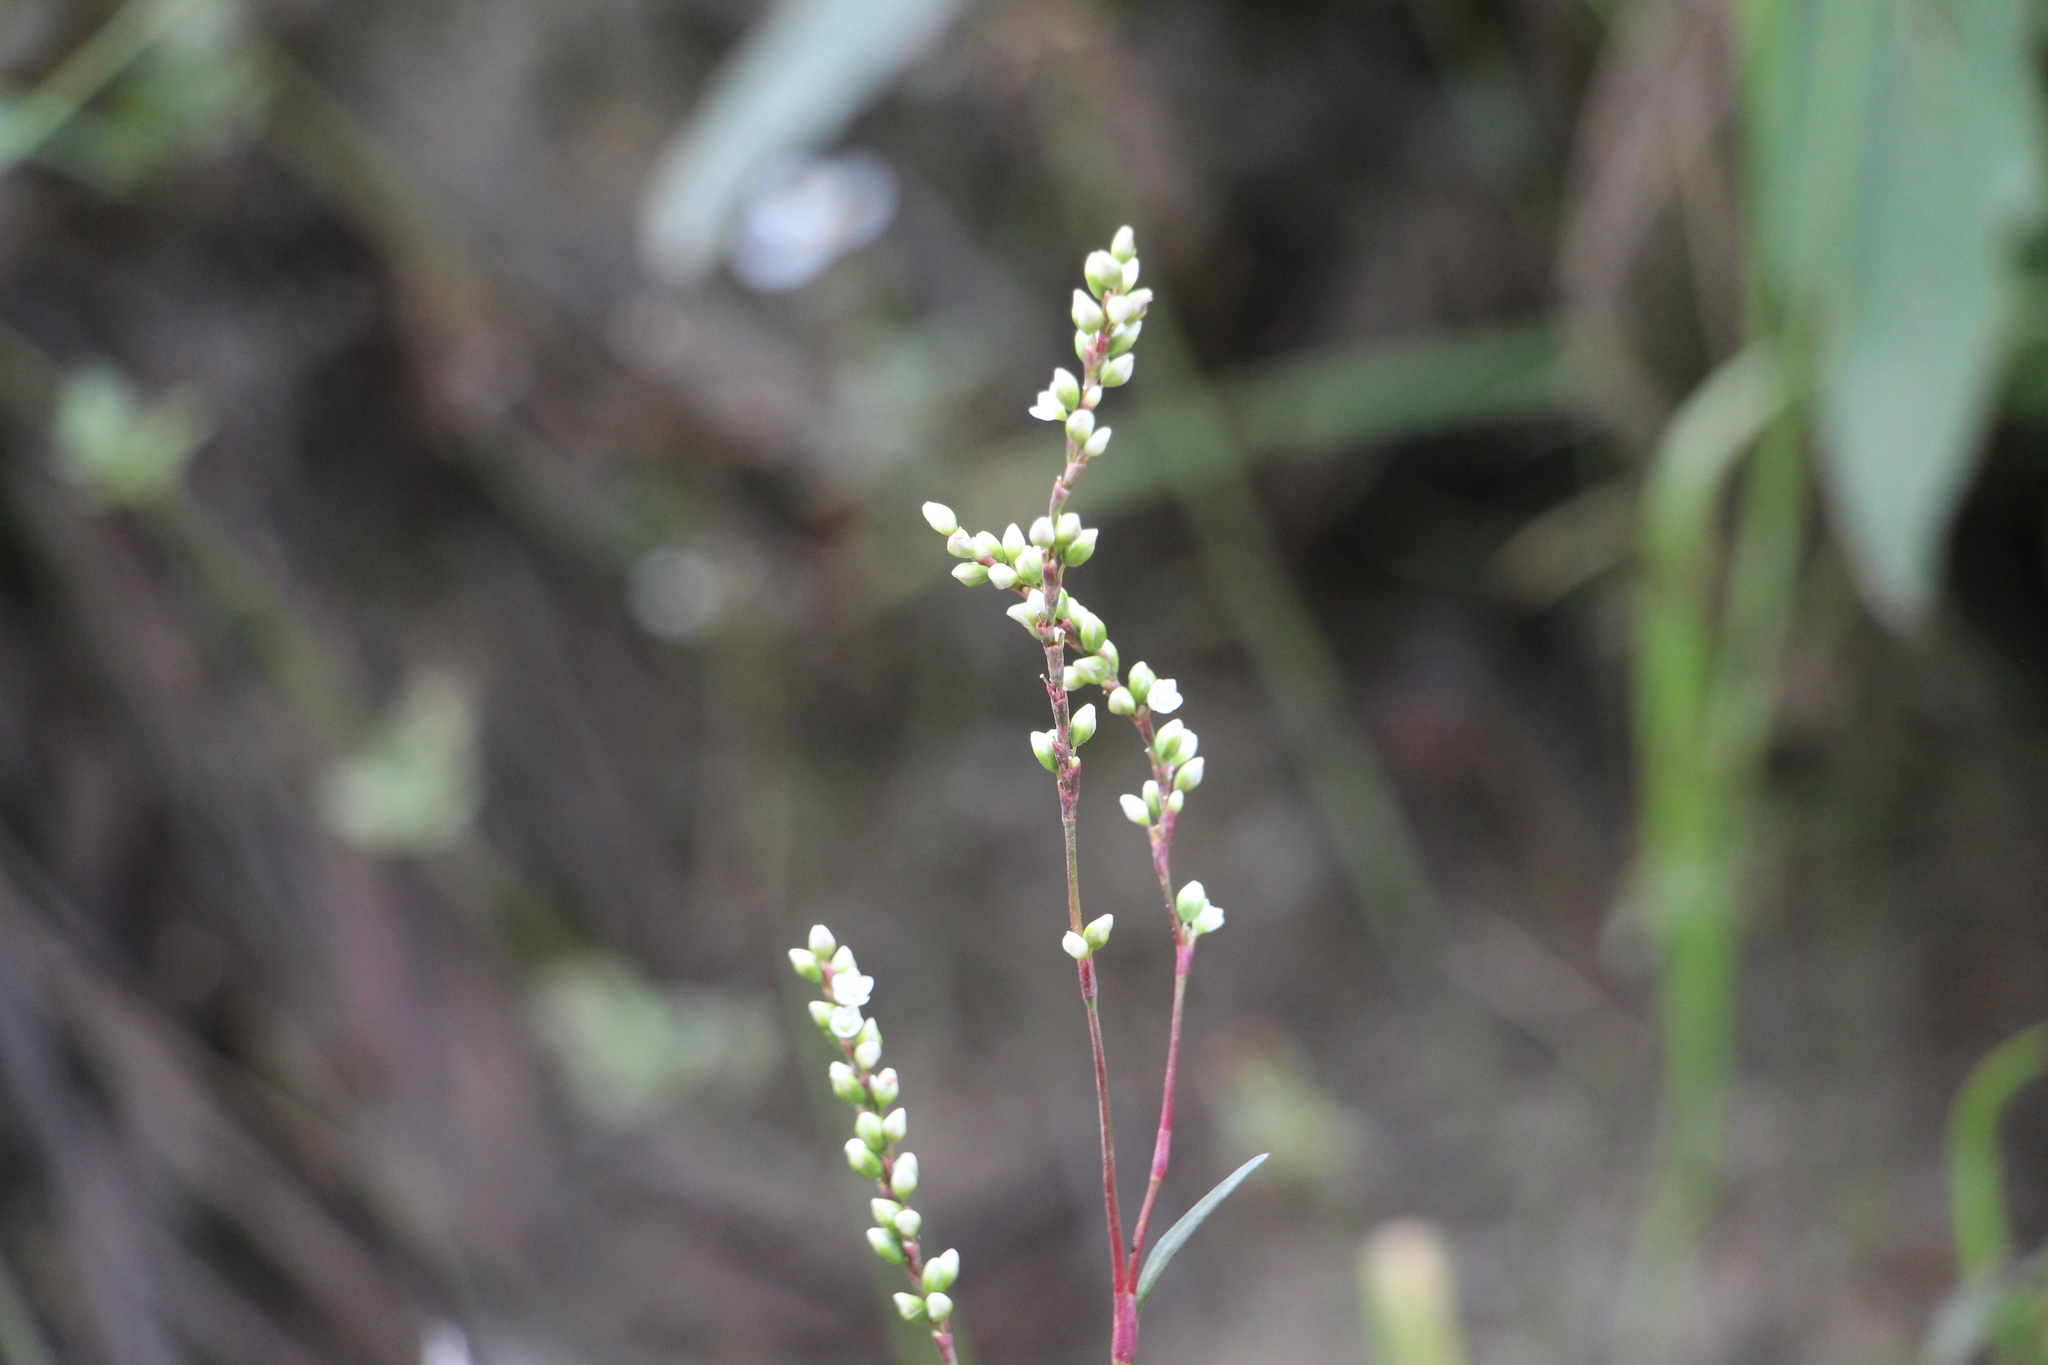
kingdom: Plantae
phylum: Tracheophyta
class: Magnoliopsida
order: Caryophyllales
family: Polygonaceae
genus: Persicaria
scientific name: Persicaria punctata
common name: Dotted smartweed
